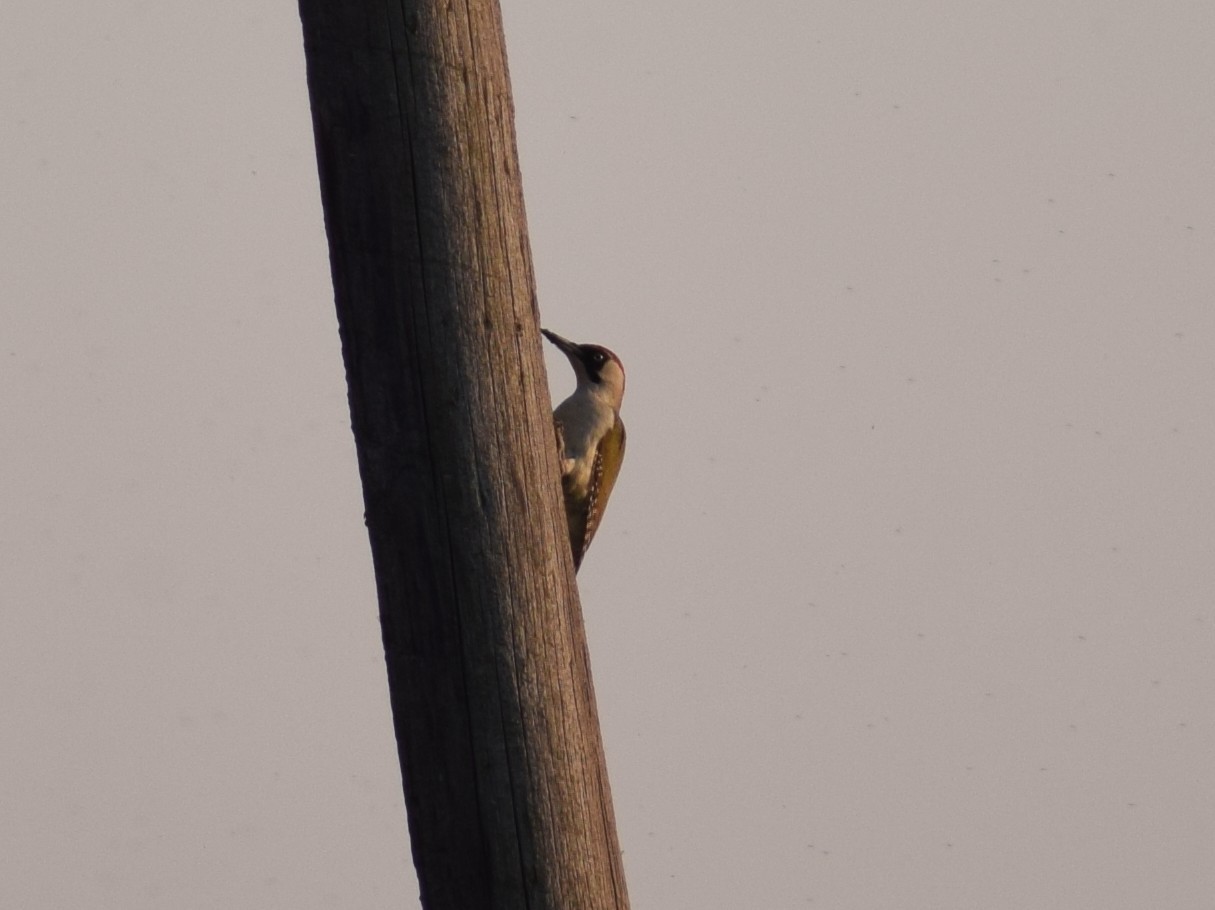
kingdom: Animalia
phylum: Chordata
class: Aves
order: Piciformes
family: Picidae
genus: Picus
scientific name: Picus viridis
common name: European green woodpecker
